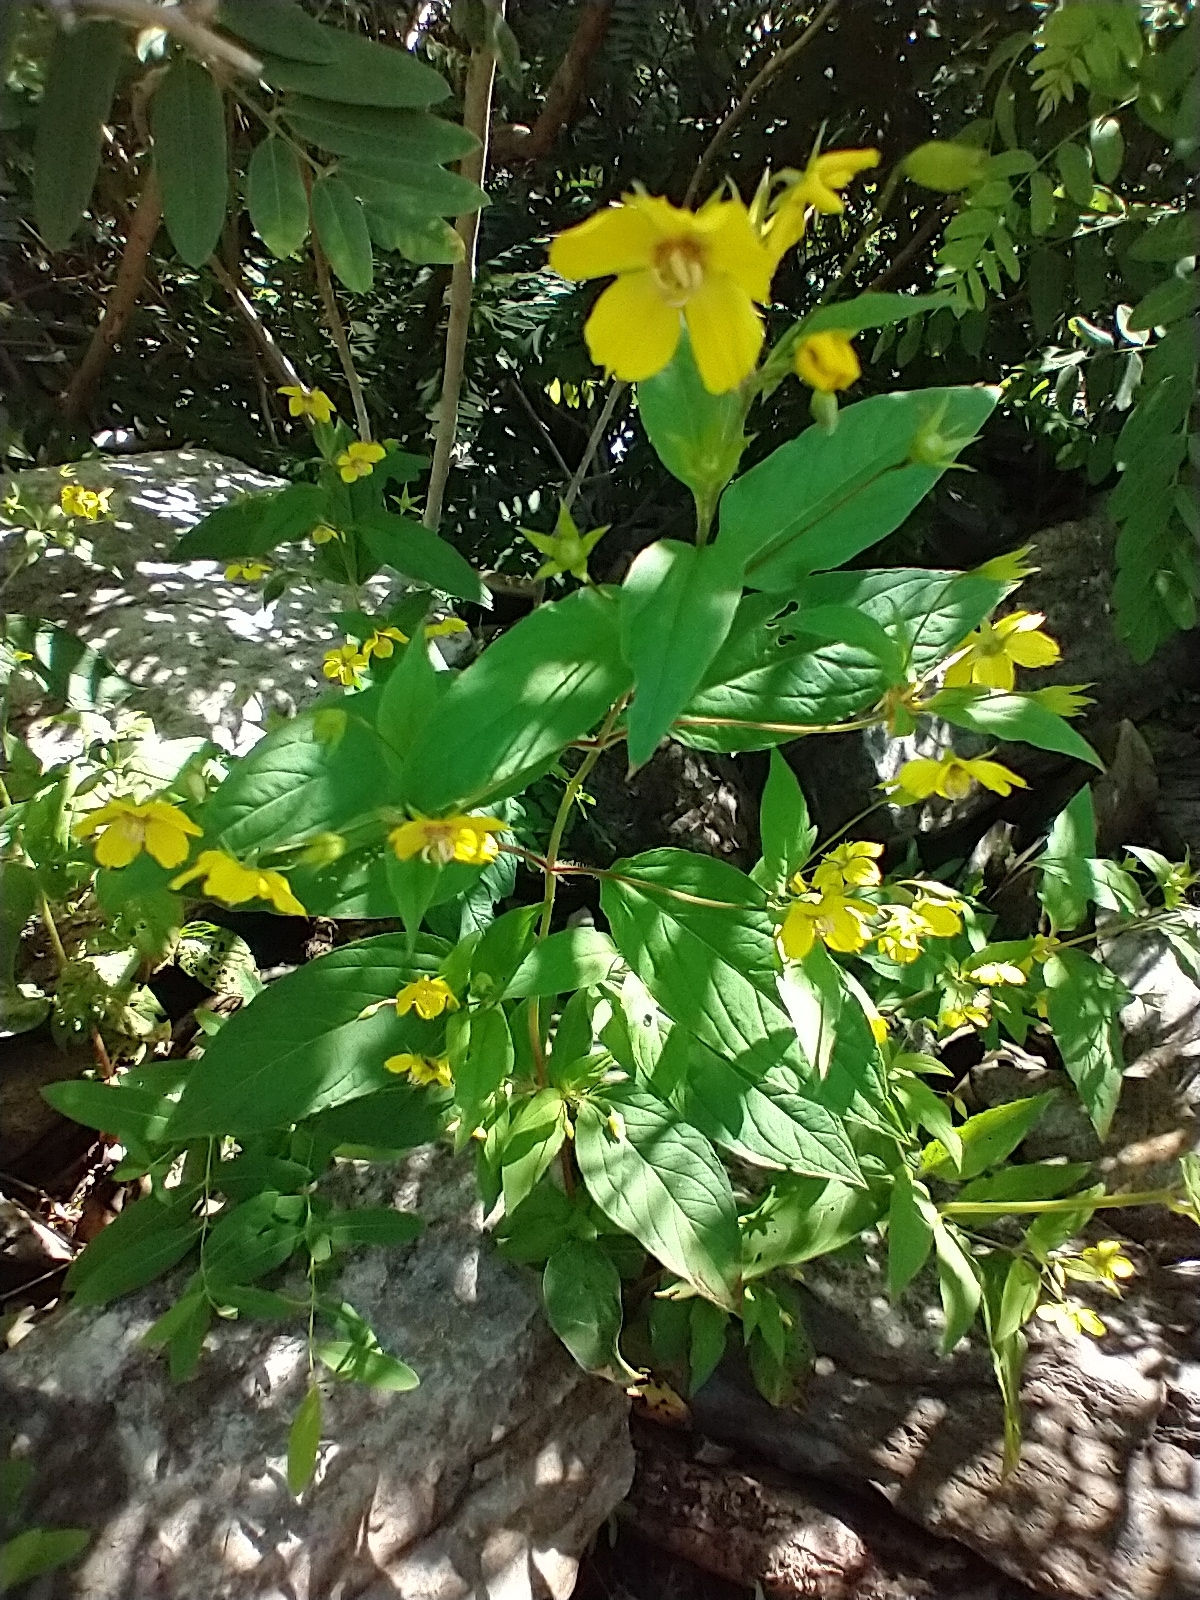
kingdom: Plantae
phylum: Tracheophyta
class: Magnoliopsida
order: Ericales
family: Primulaceae
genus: Lysimachia
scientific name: Lysimachia ciliata
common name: Fringed loosestrife
